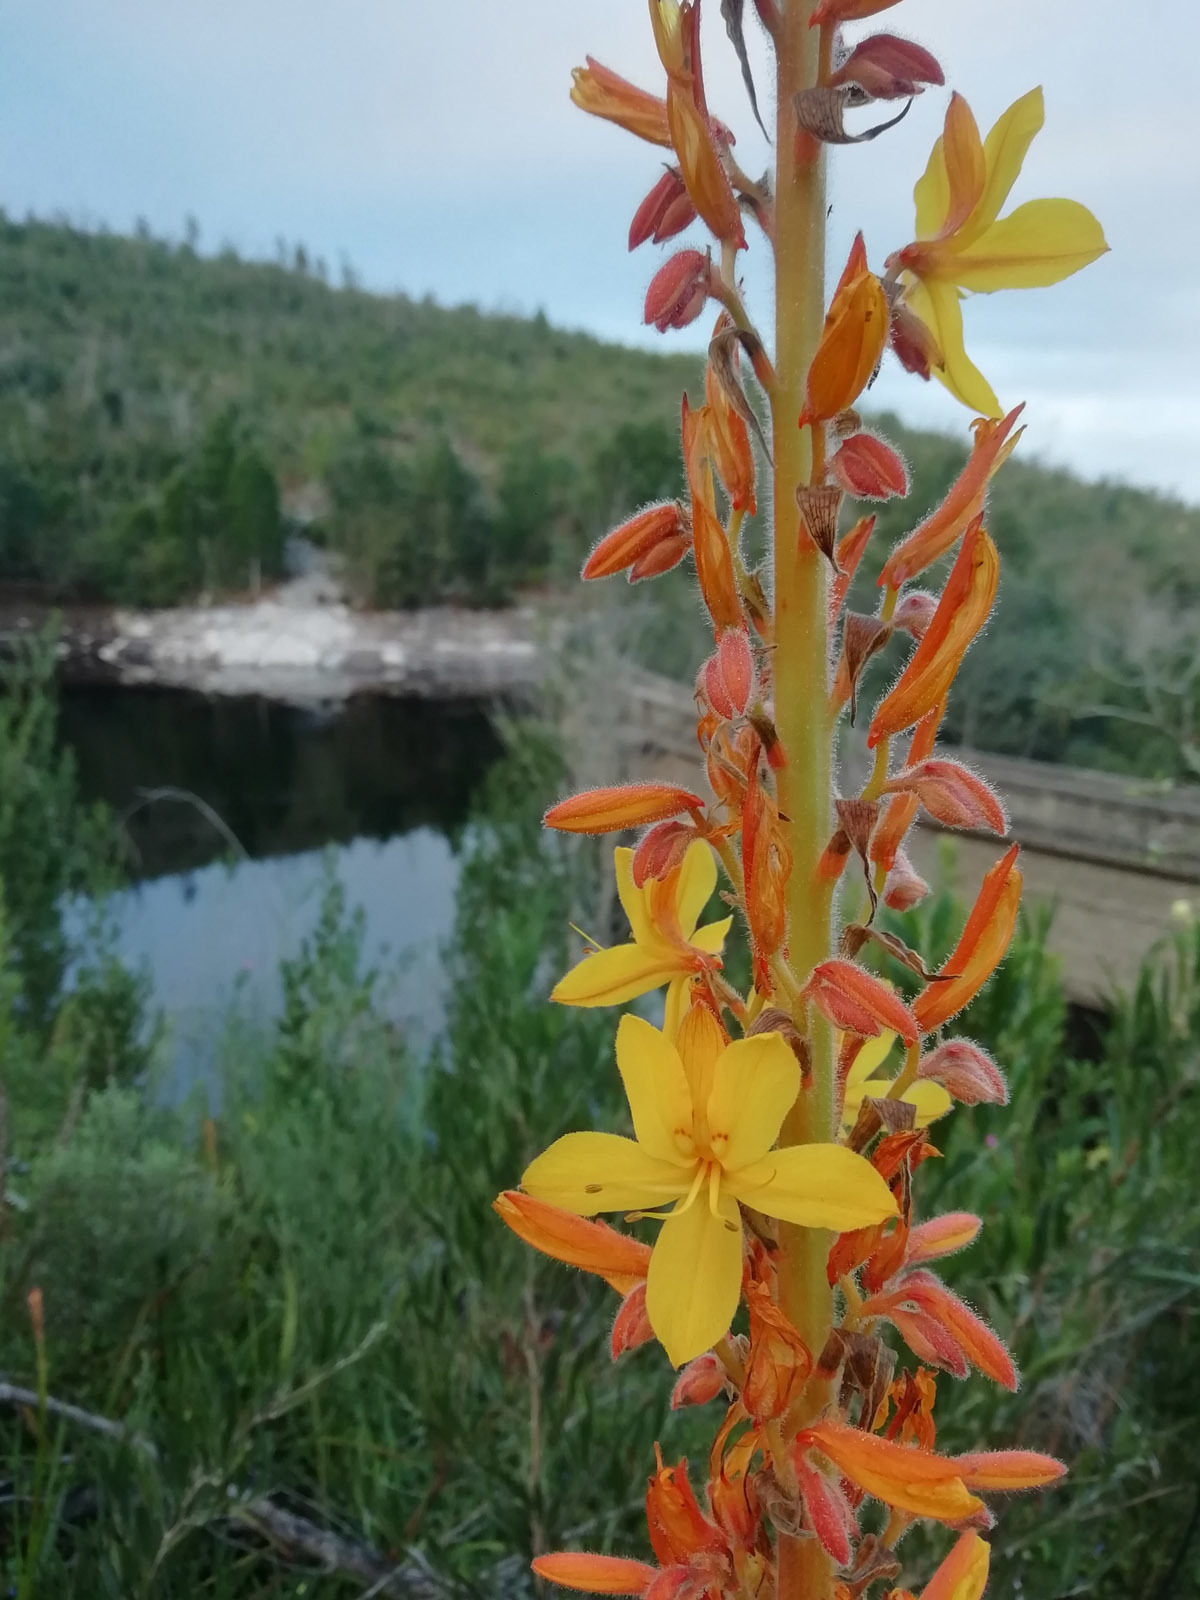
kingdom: Plantae
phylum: Tracheophyta
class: Liliopsida
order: Commelinales
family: Haemodoraceae
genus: Wachendorfia
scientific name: Wachendorfia thyrsiflora
